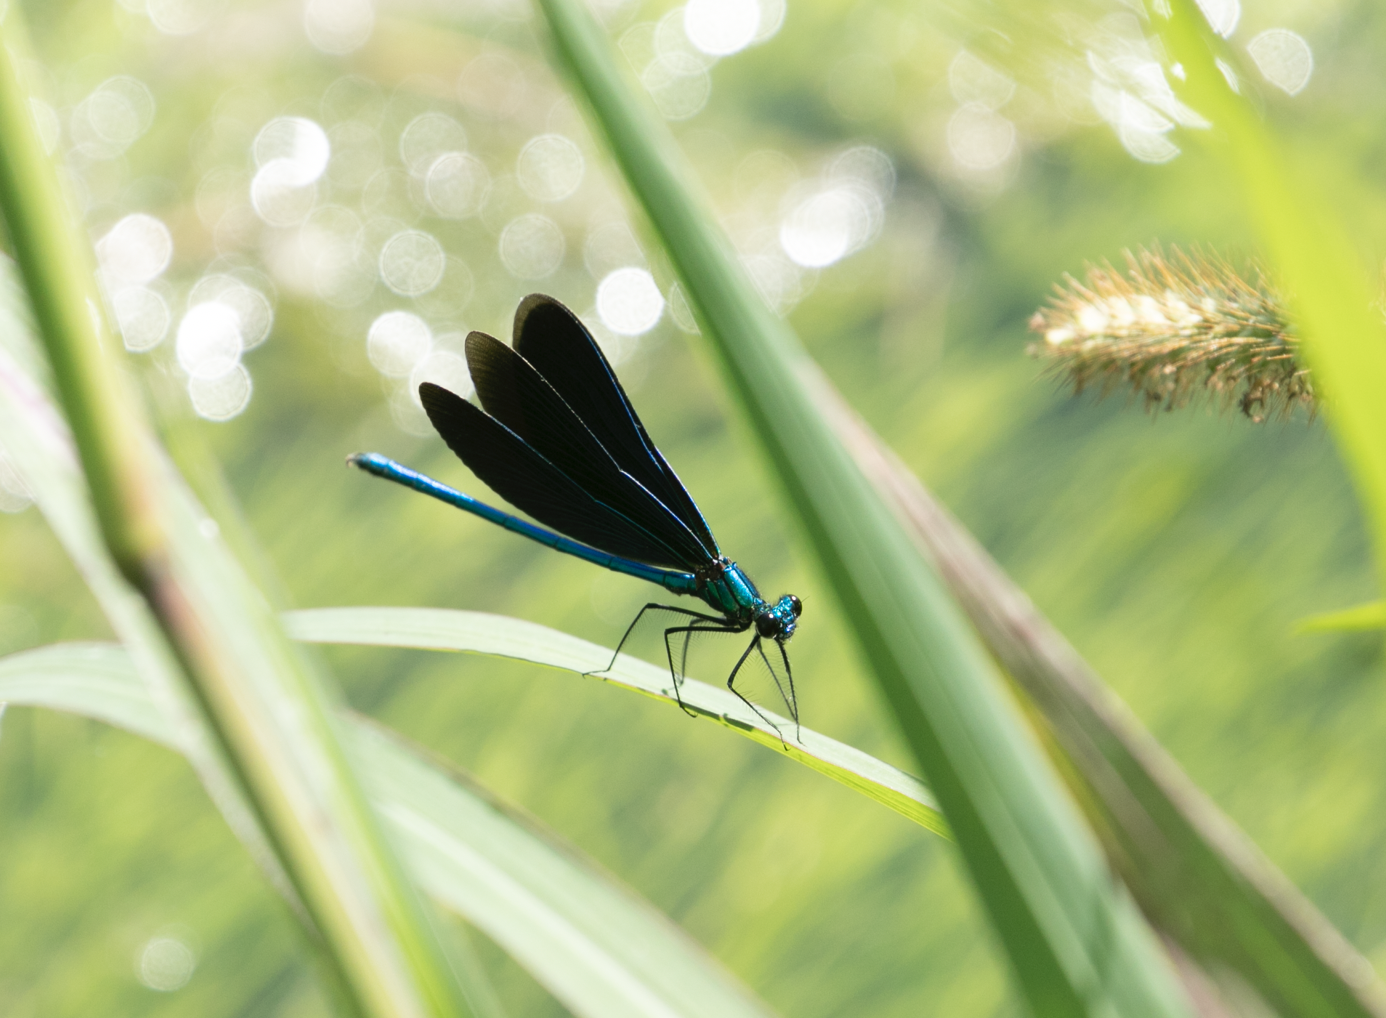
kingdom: Animalia
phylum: Arthropoda
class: Insecta
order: Odonata
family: Calopterygidae
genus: Calopteryx
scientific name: Calopteryx virgo
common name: Beautiful demoiselle
